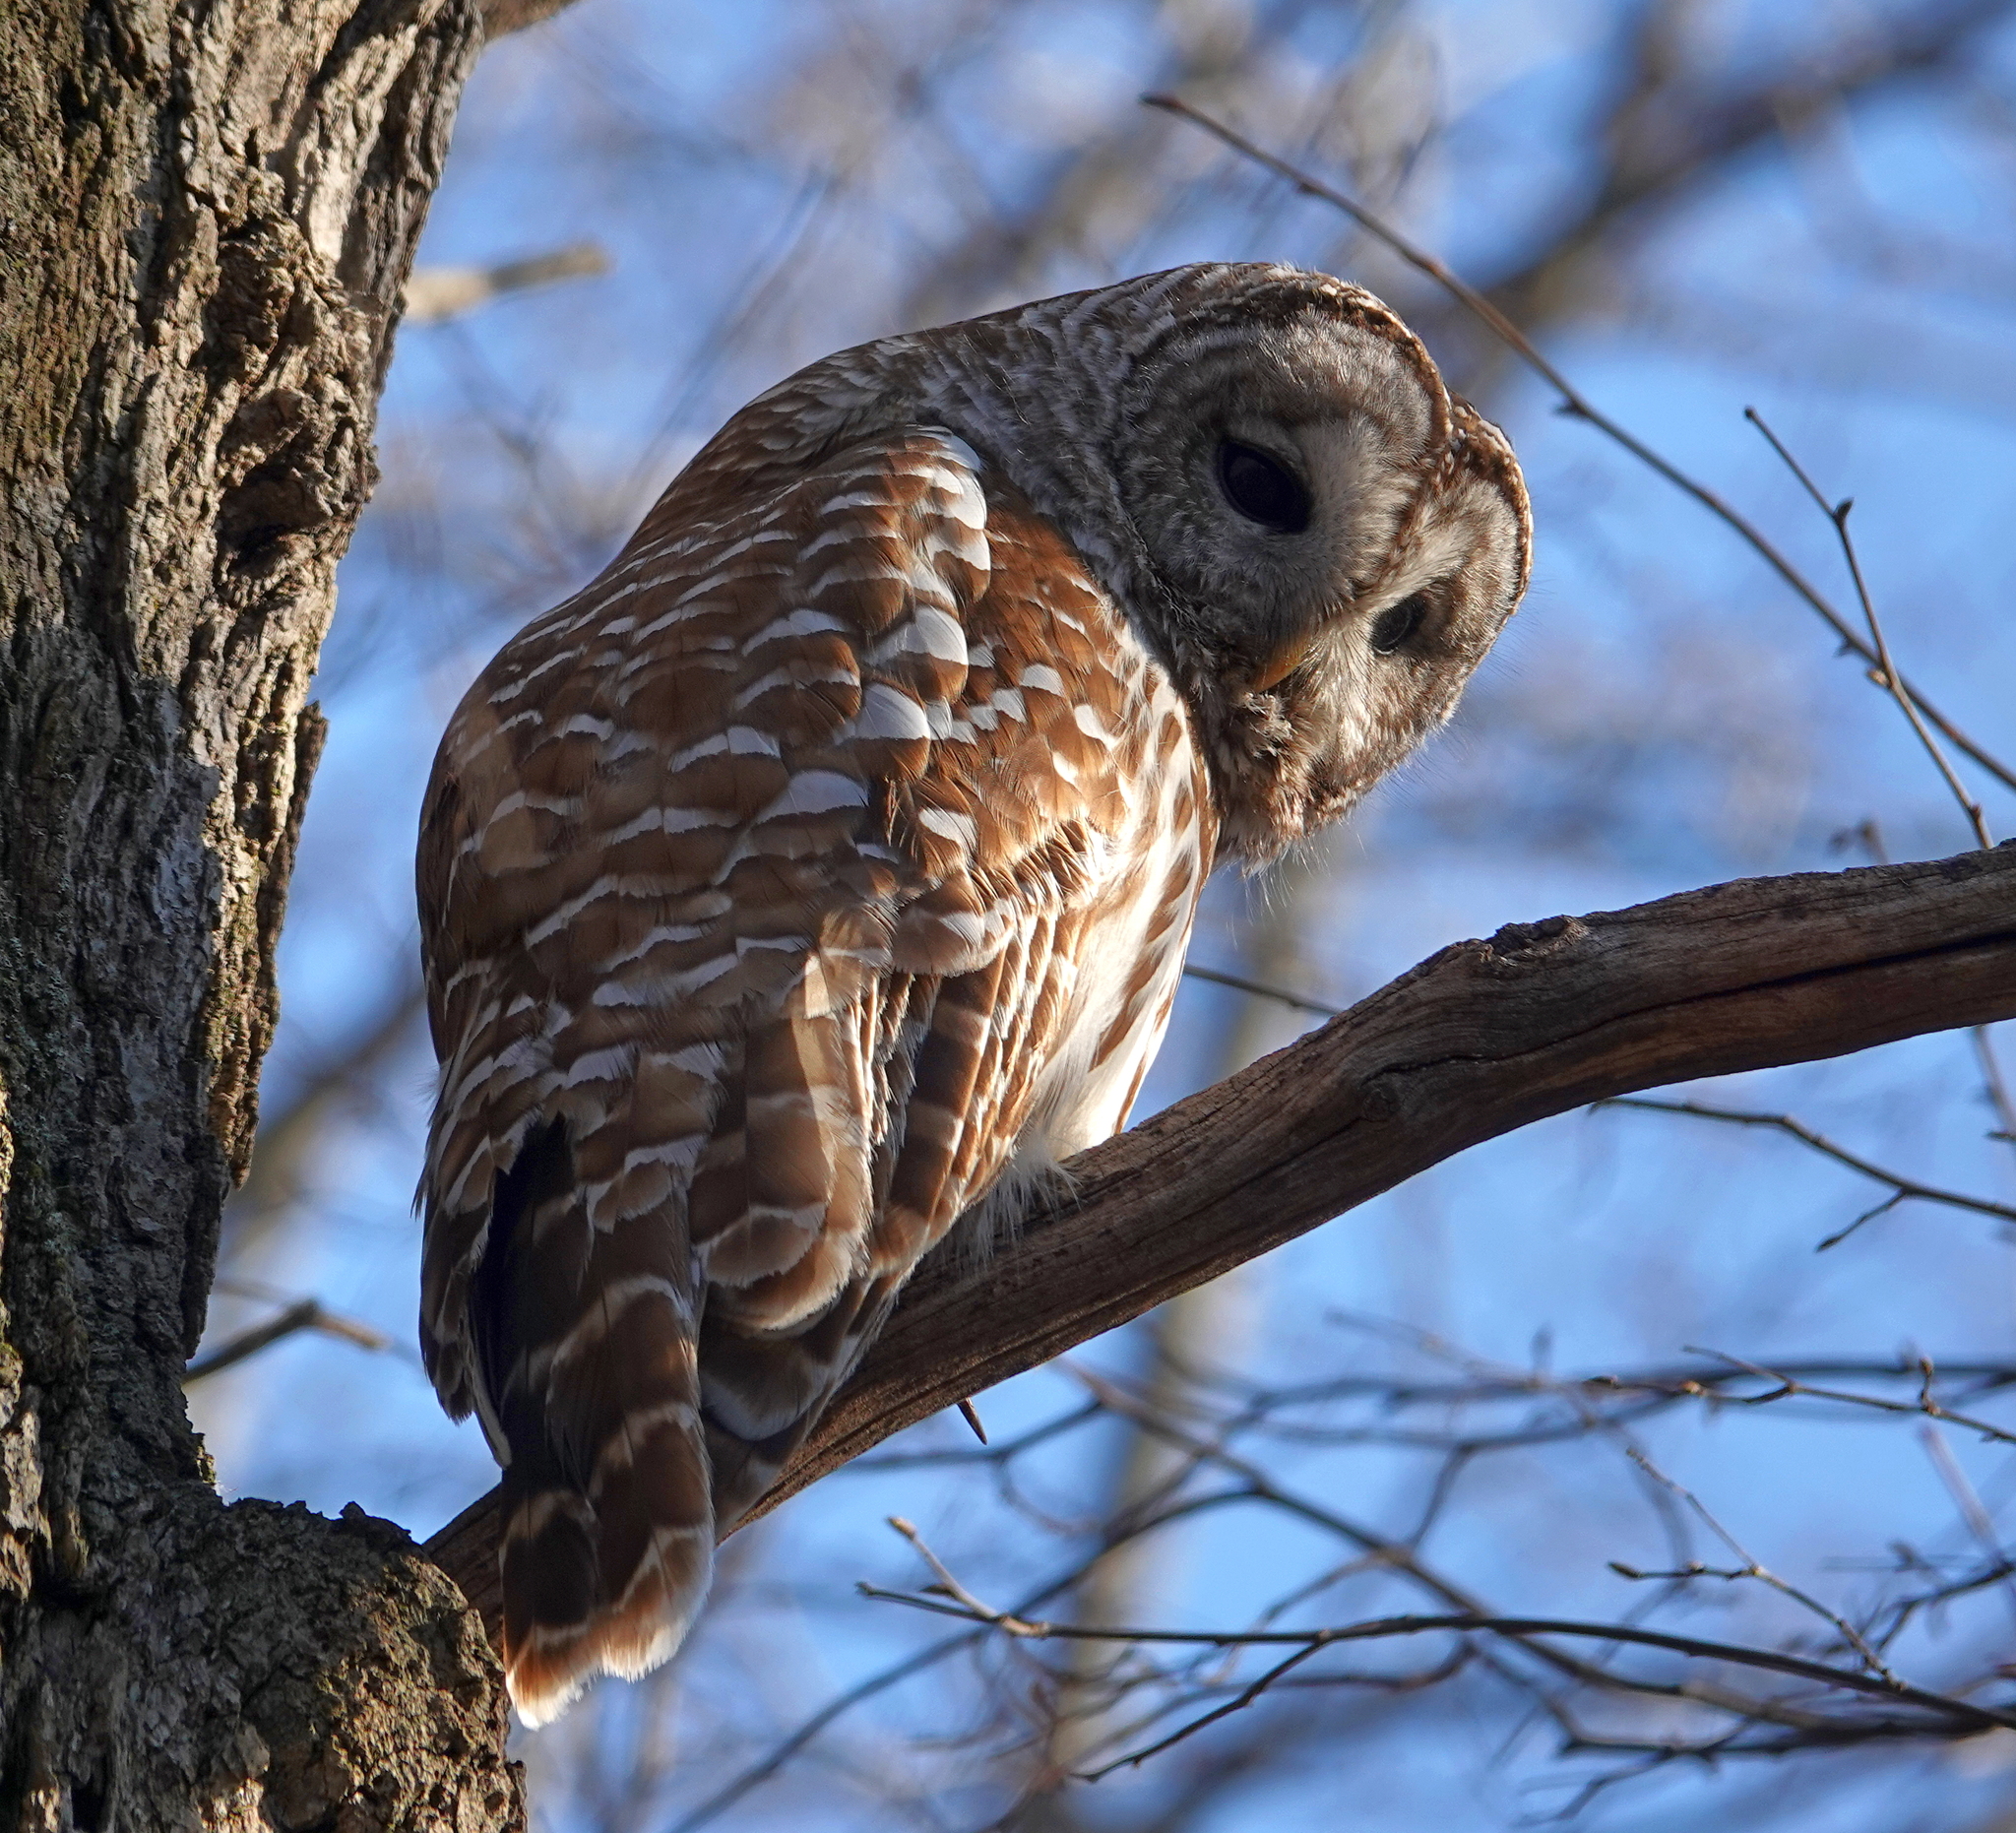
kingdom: Animalia
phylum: Chordata
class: Aves
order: Strigiformes
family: Strigidae
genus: Strix
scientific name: Strix varia
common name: Barred owl
